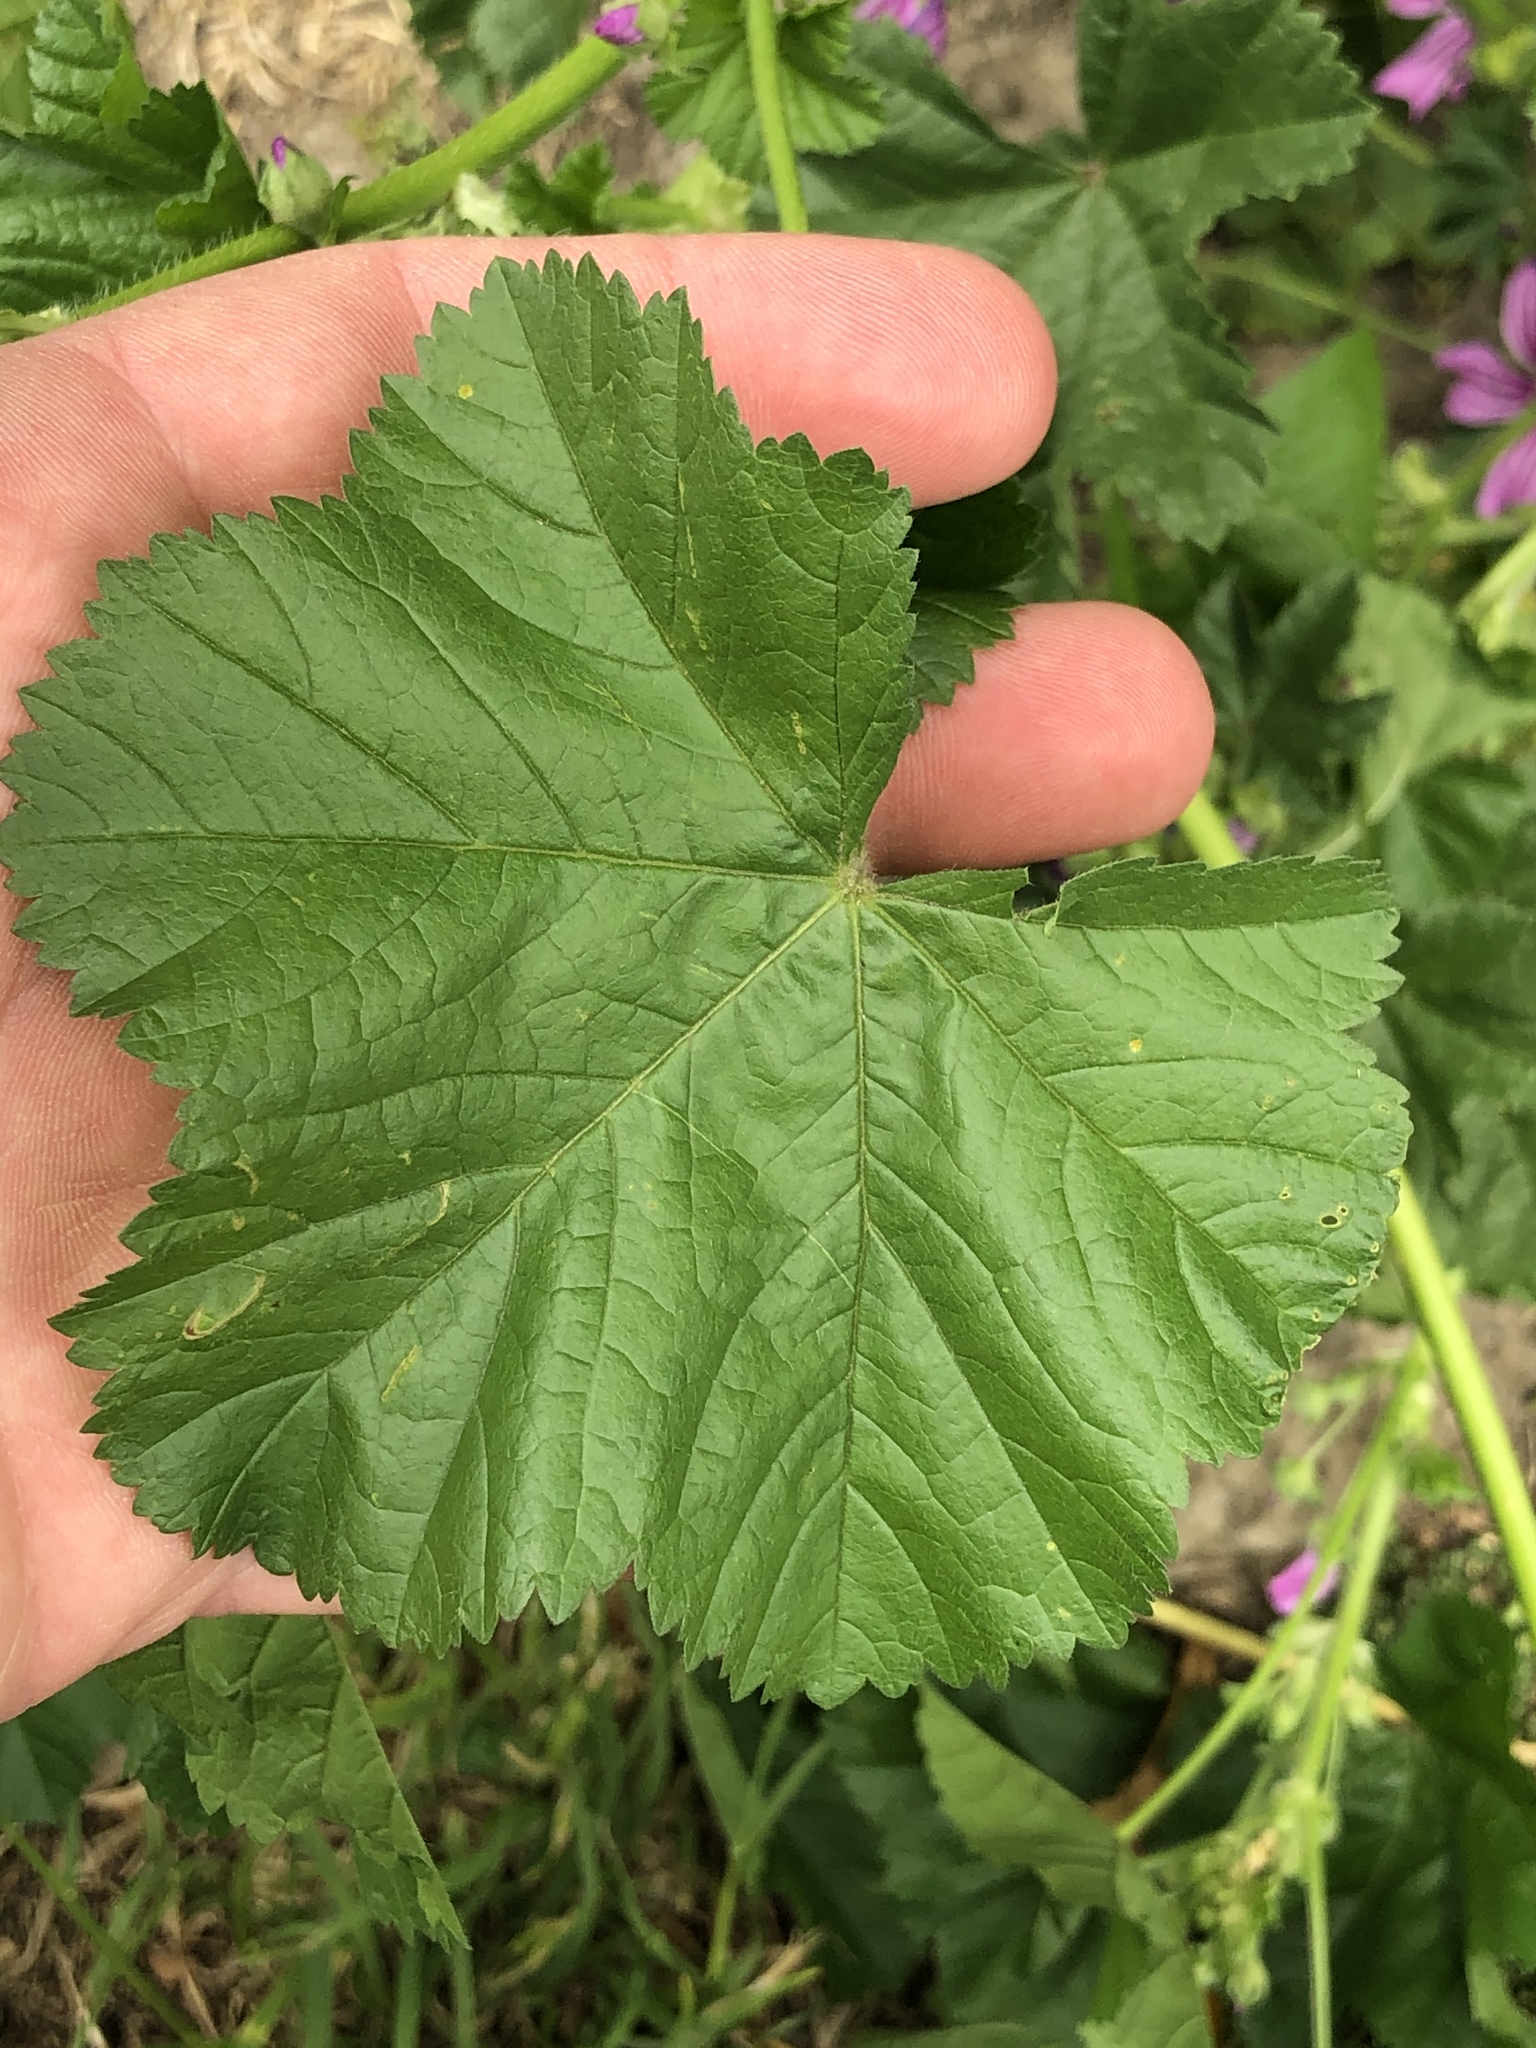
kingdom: Plantae
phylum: Tracheophyta
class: Magnoliopsida
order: Malvales
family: Malvaceae
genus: Malva
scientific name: Malva sylvestris
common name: Common mallow
